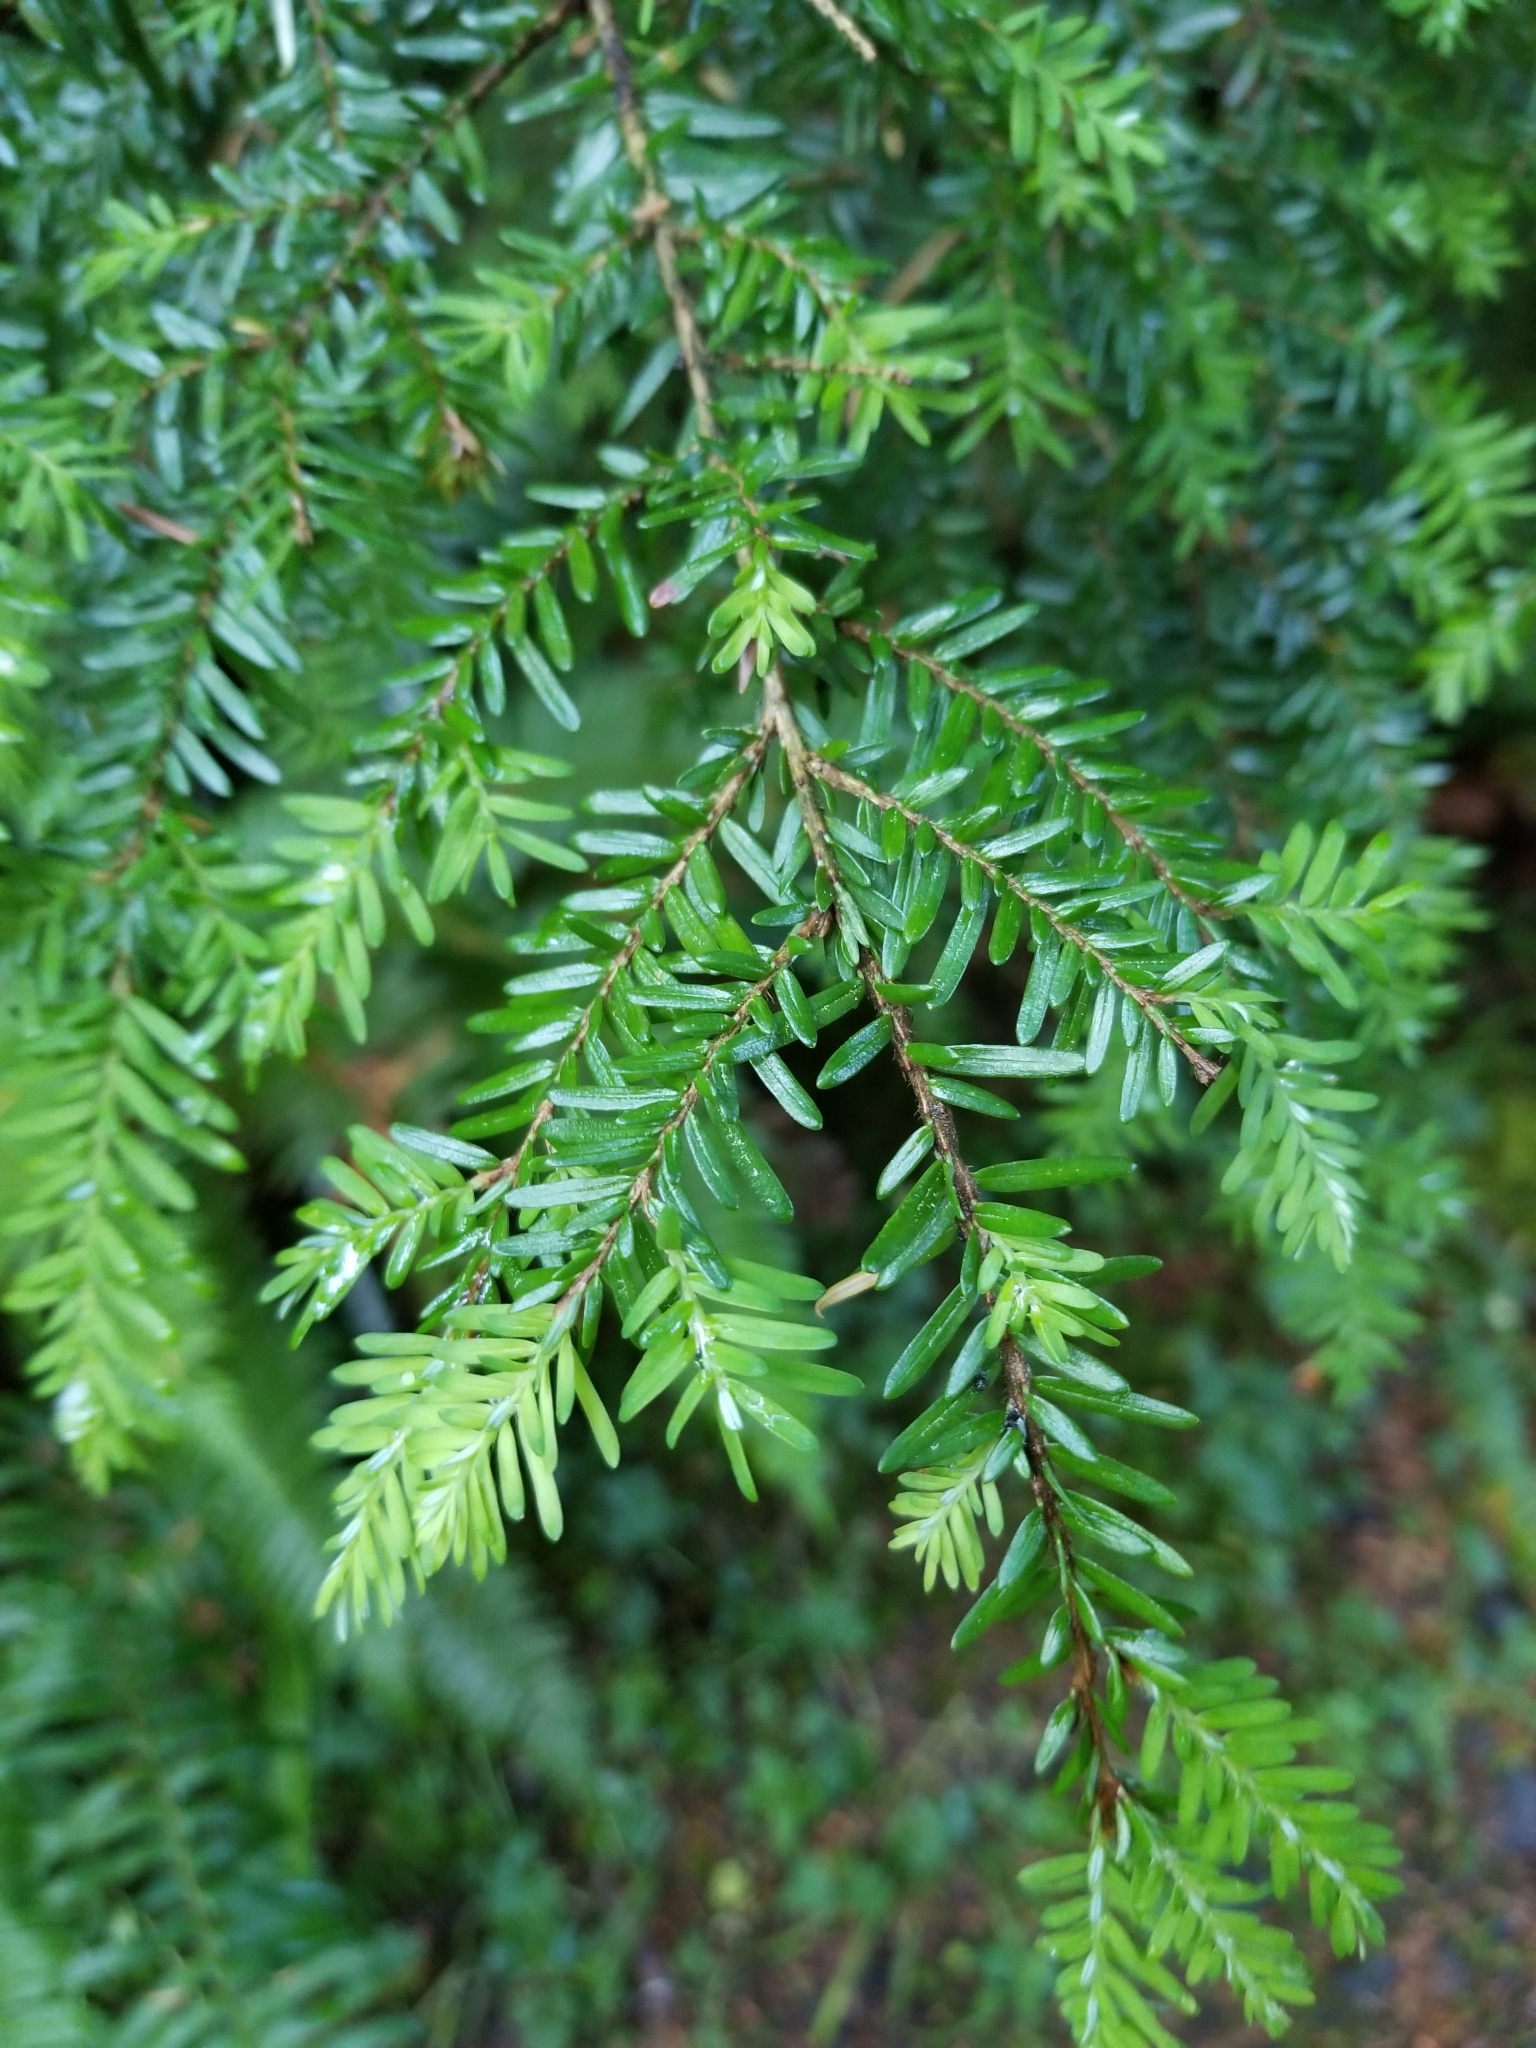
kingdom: Plantae
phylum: Tracheophyta
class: Pinopsida
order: Pinales
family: Pinaceae
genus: Tsuga
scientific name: Tsuga heterophylla
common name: Western hemlock
